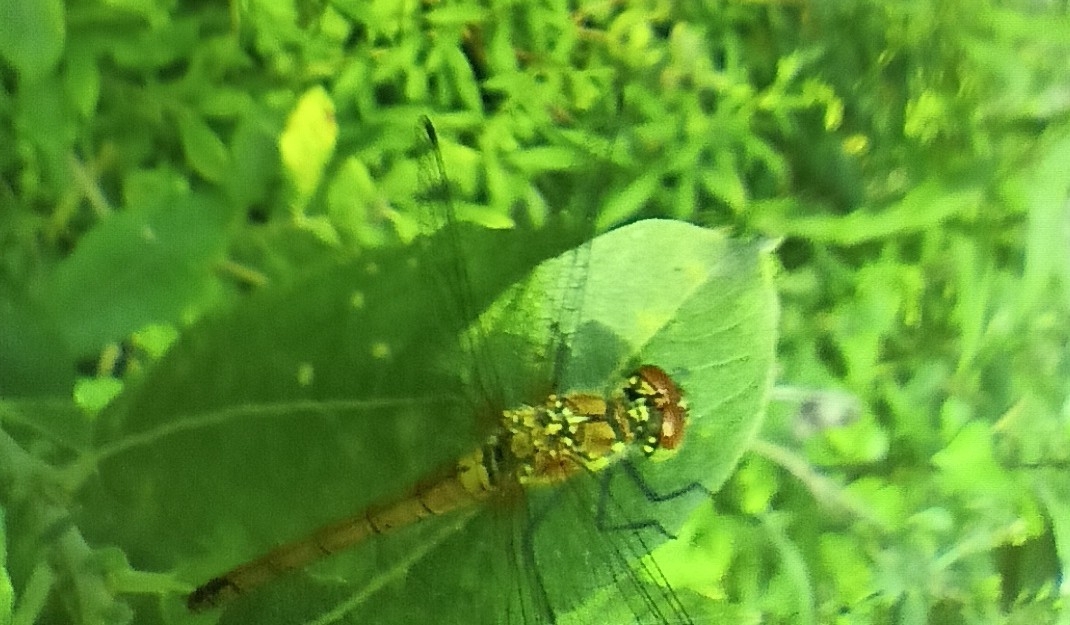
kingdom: Animalia
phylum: Arthropoda
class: Insecta
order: Odonata
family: Libellulidae
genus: Sympetrum
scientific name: Sympetrum sanguineum
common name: Ruddy darter
